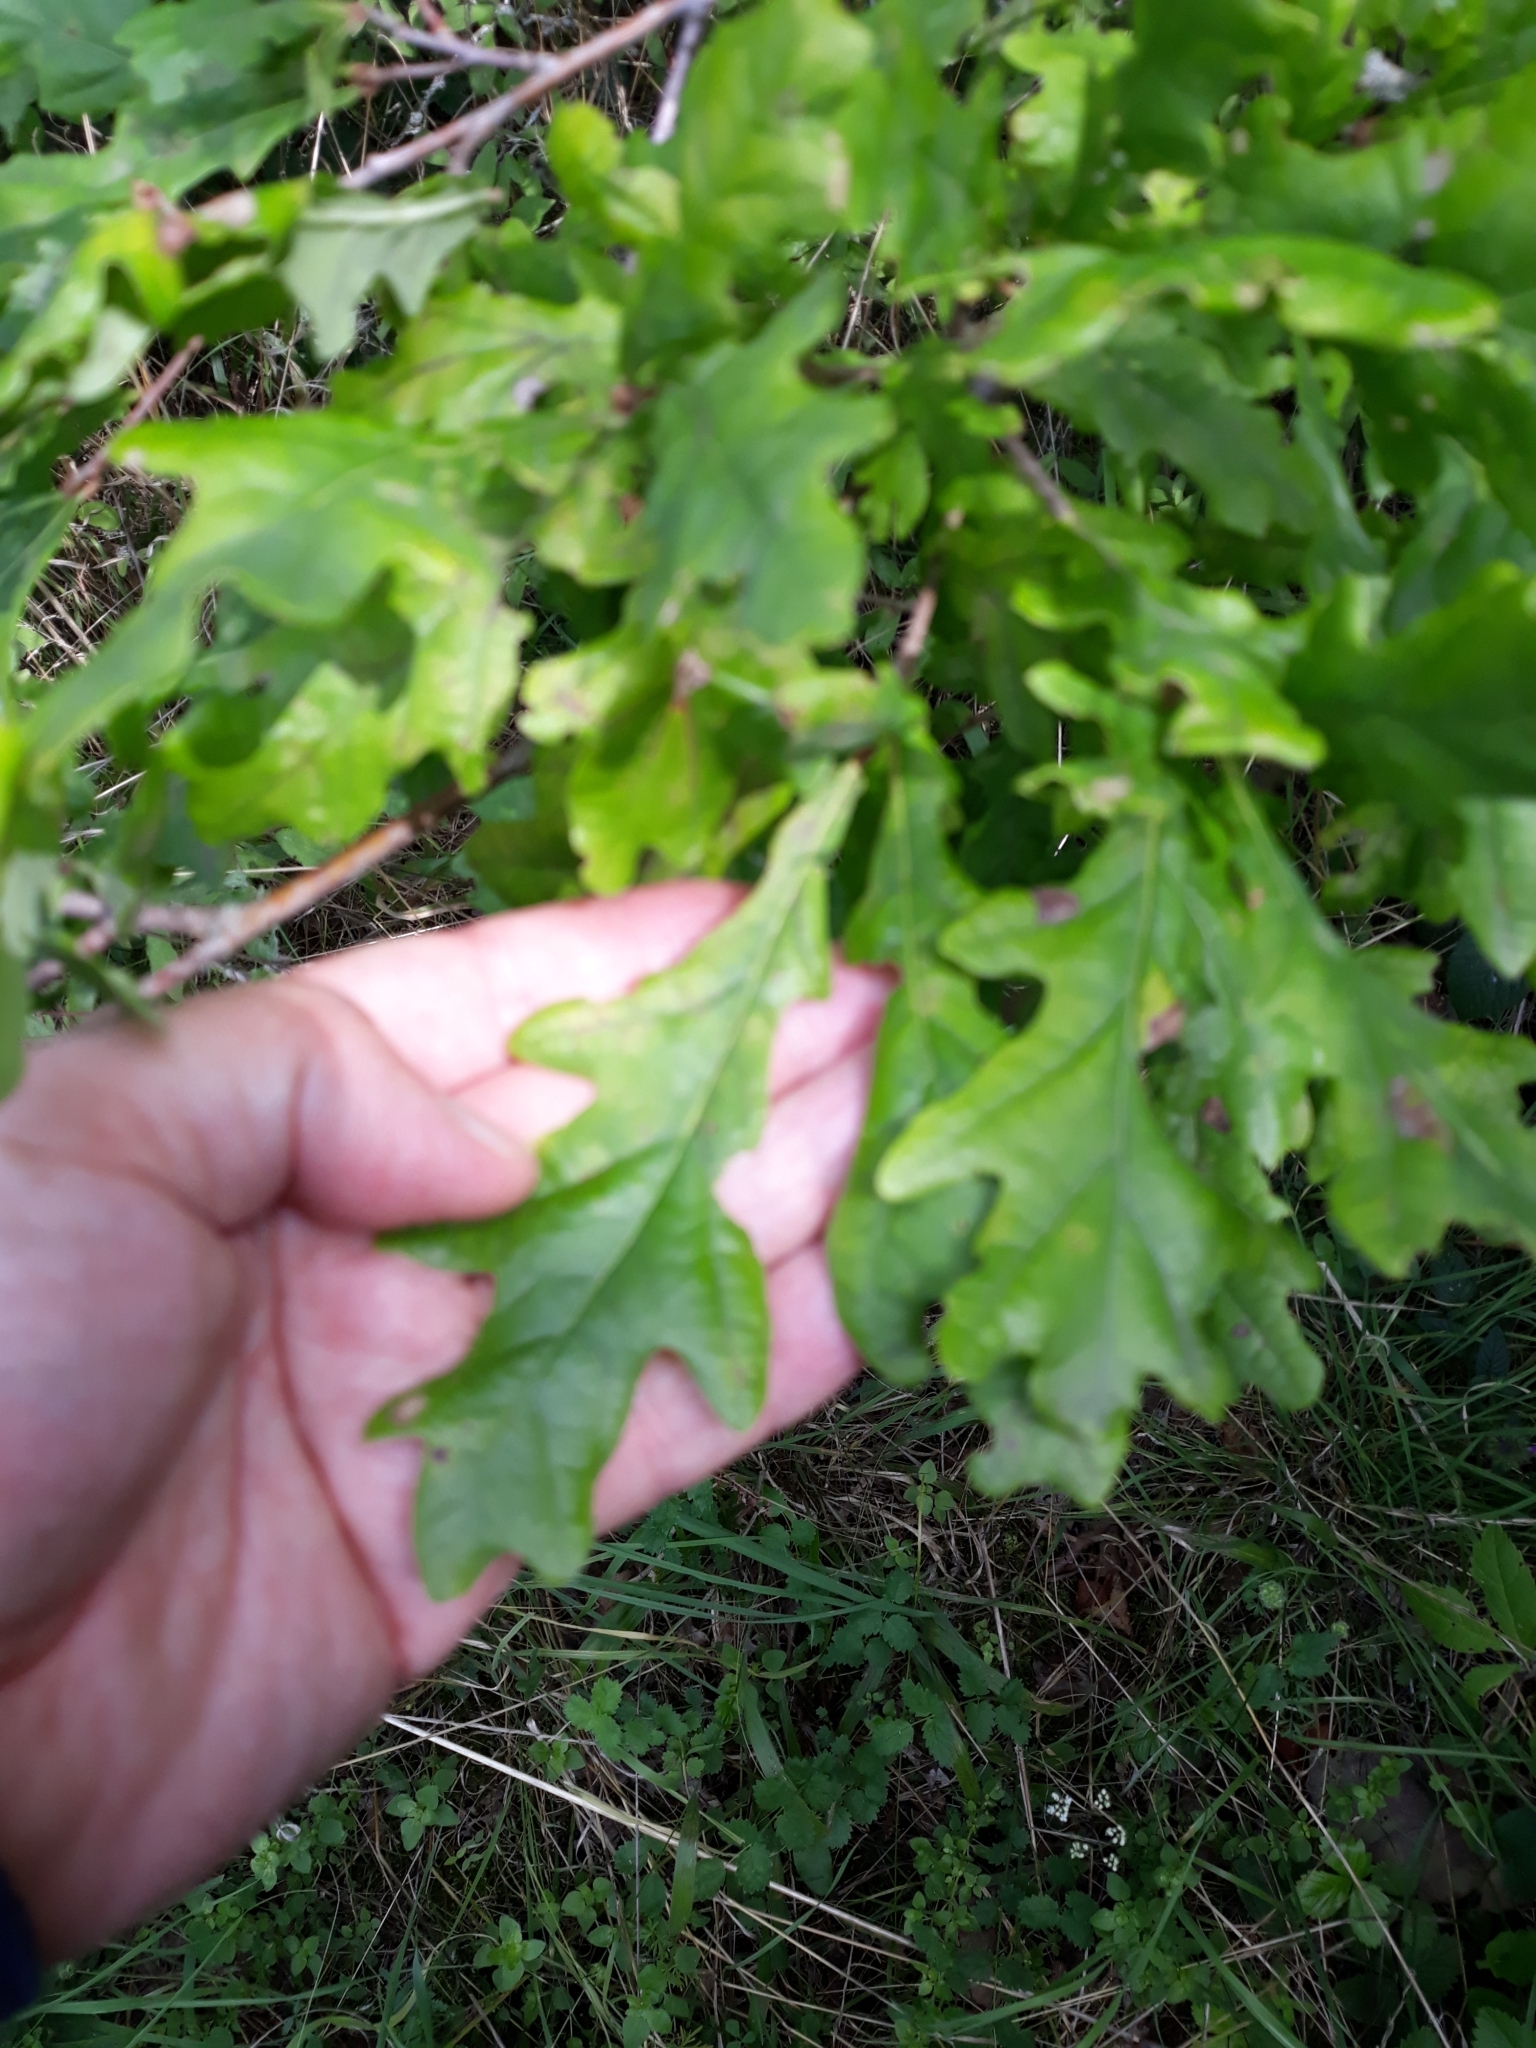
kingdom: Plantae
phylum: Tracheophyta
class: Magnoliopsida
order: Fagales
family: Fagaceae
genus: Quercus
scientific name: Quercus robur
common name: Pedunculate oak
